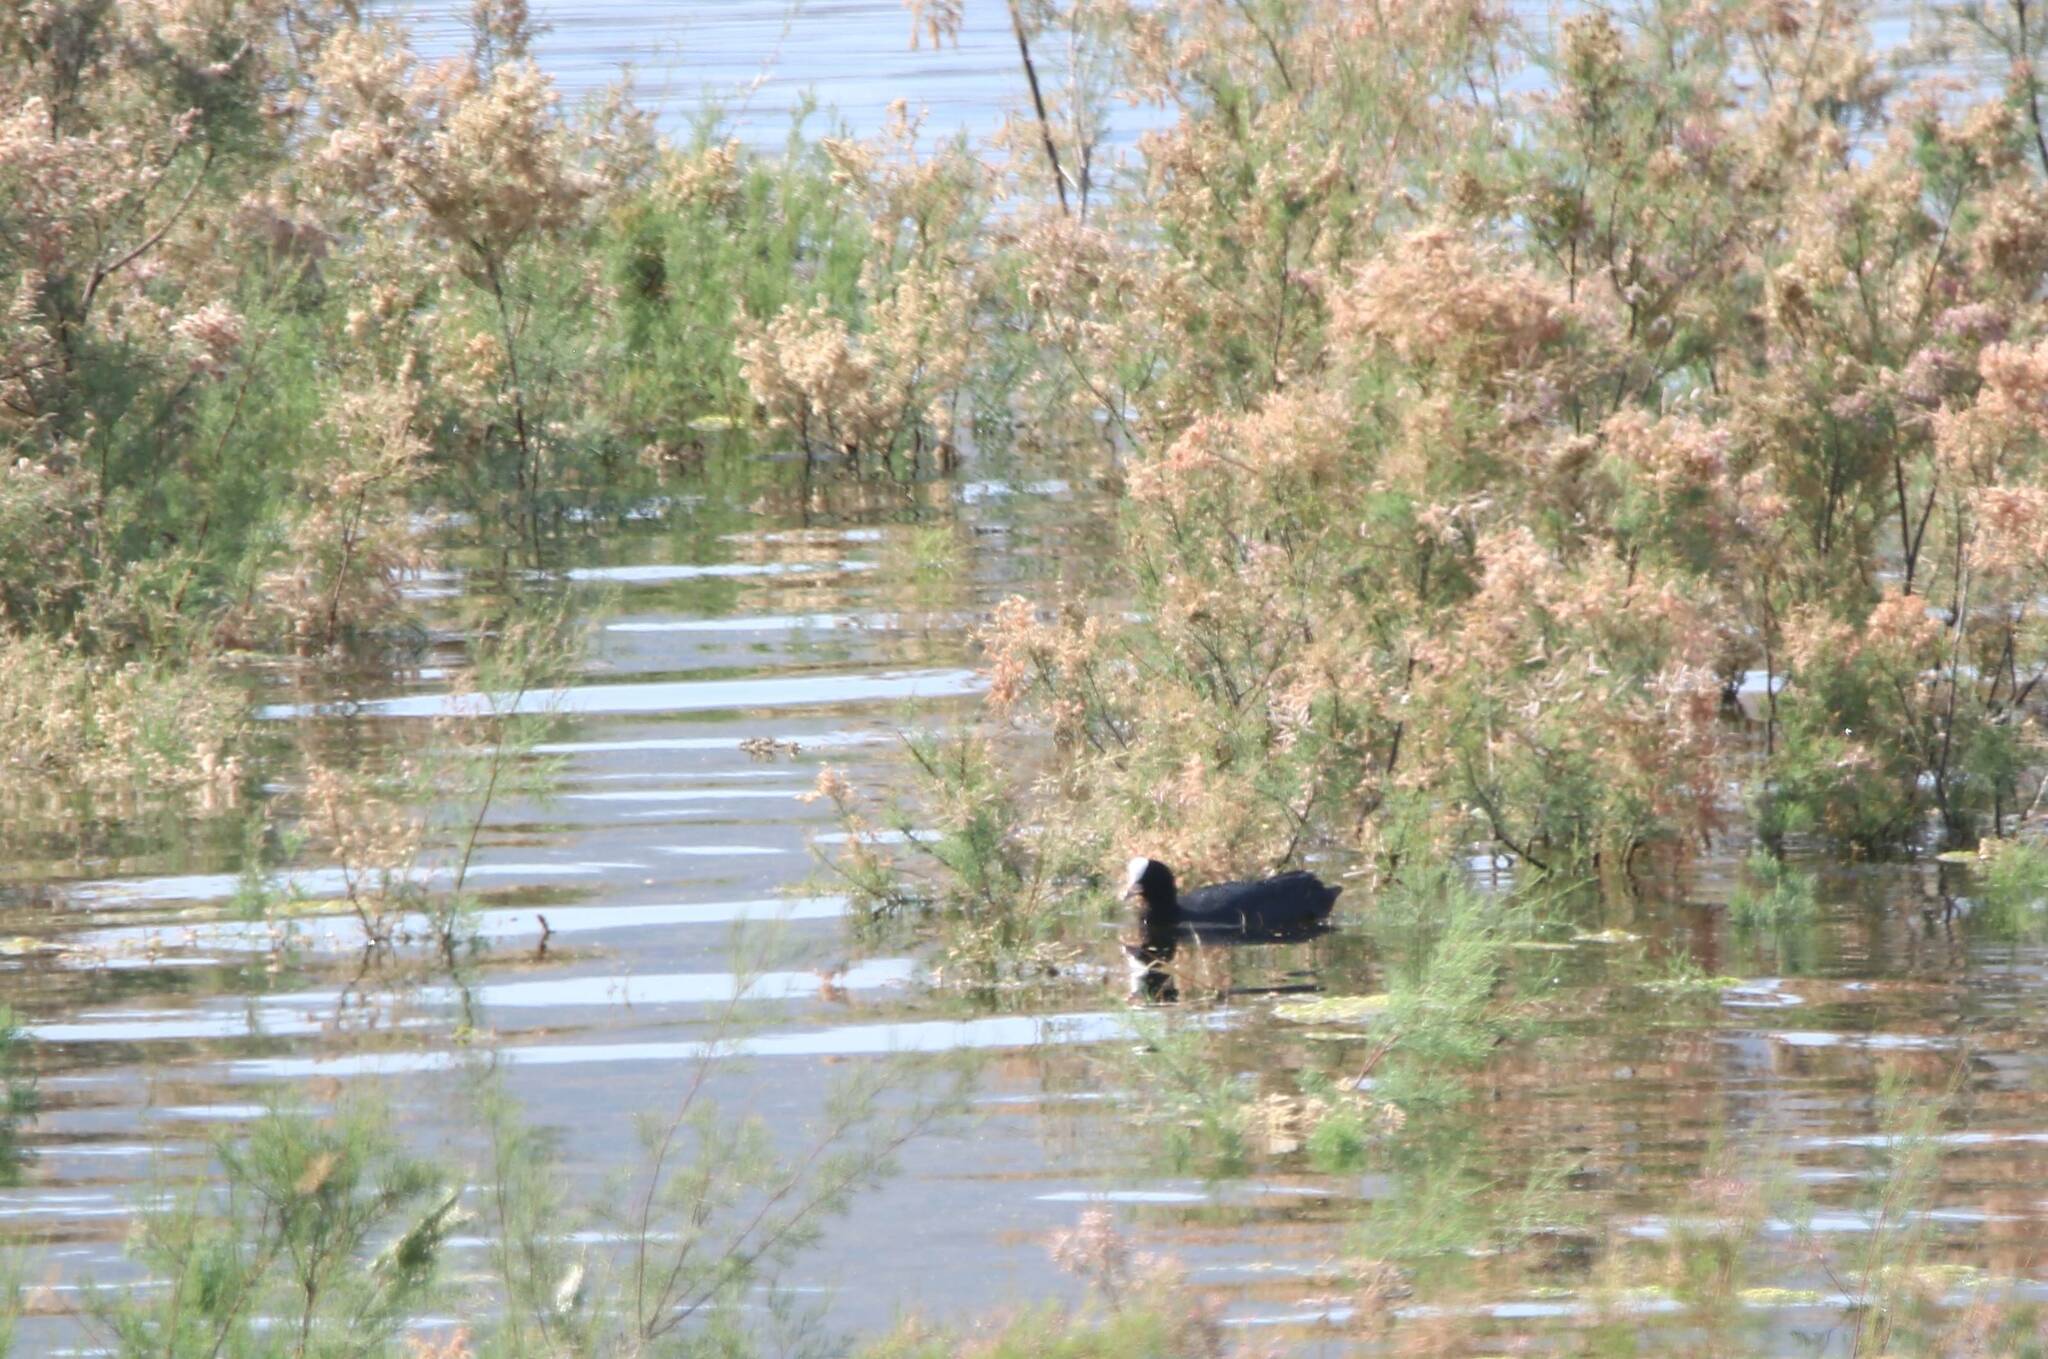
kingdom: Animalia
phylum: Chordata
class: Aves
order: Gruiformes
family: Rallidae
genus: Fulica
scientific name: Fulica atra
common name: Eurasian coot
